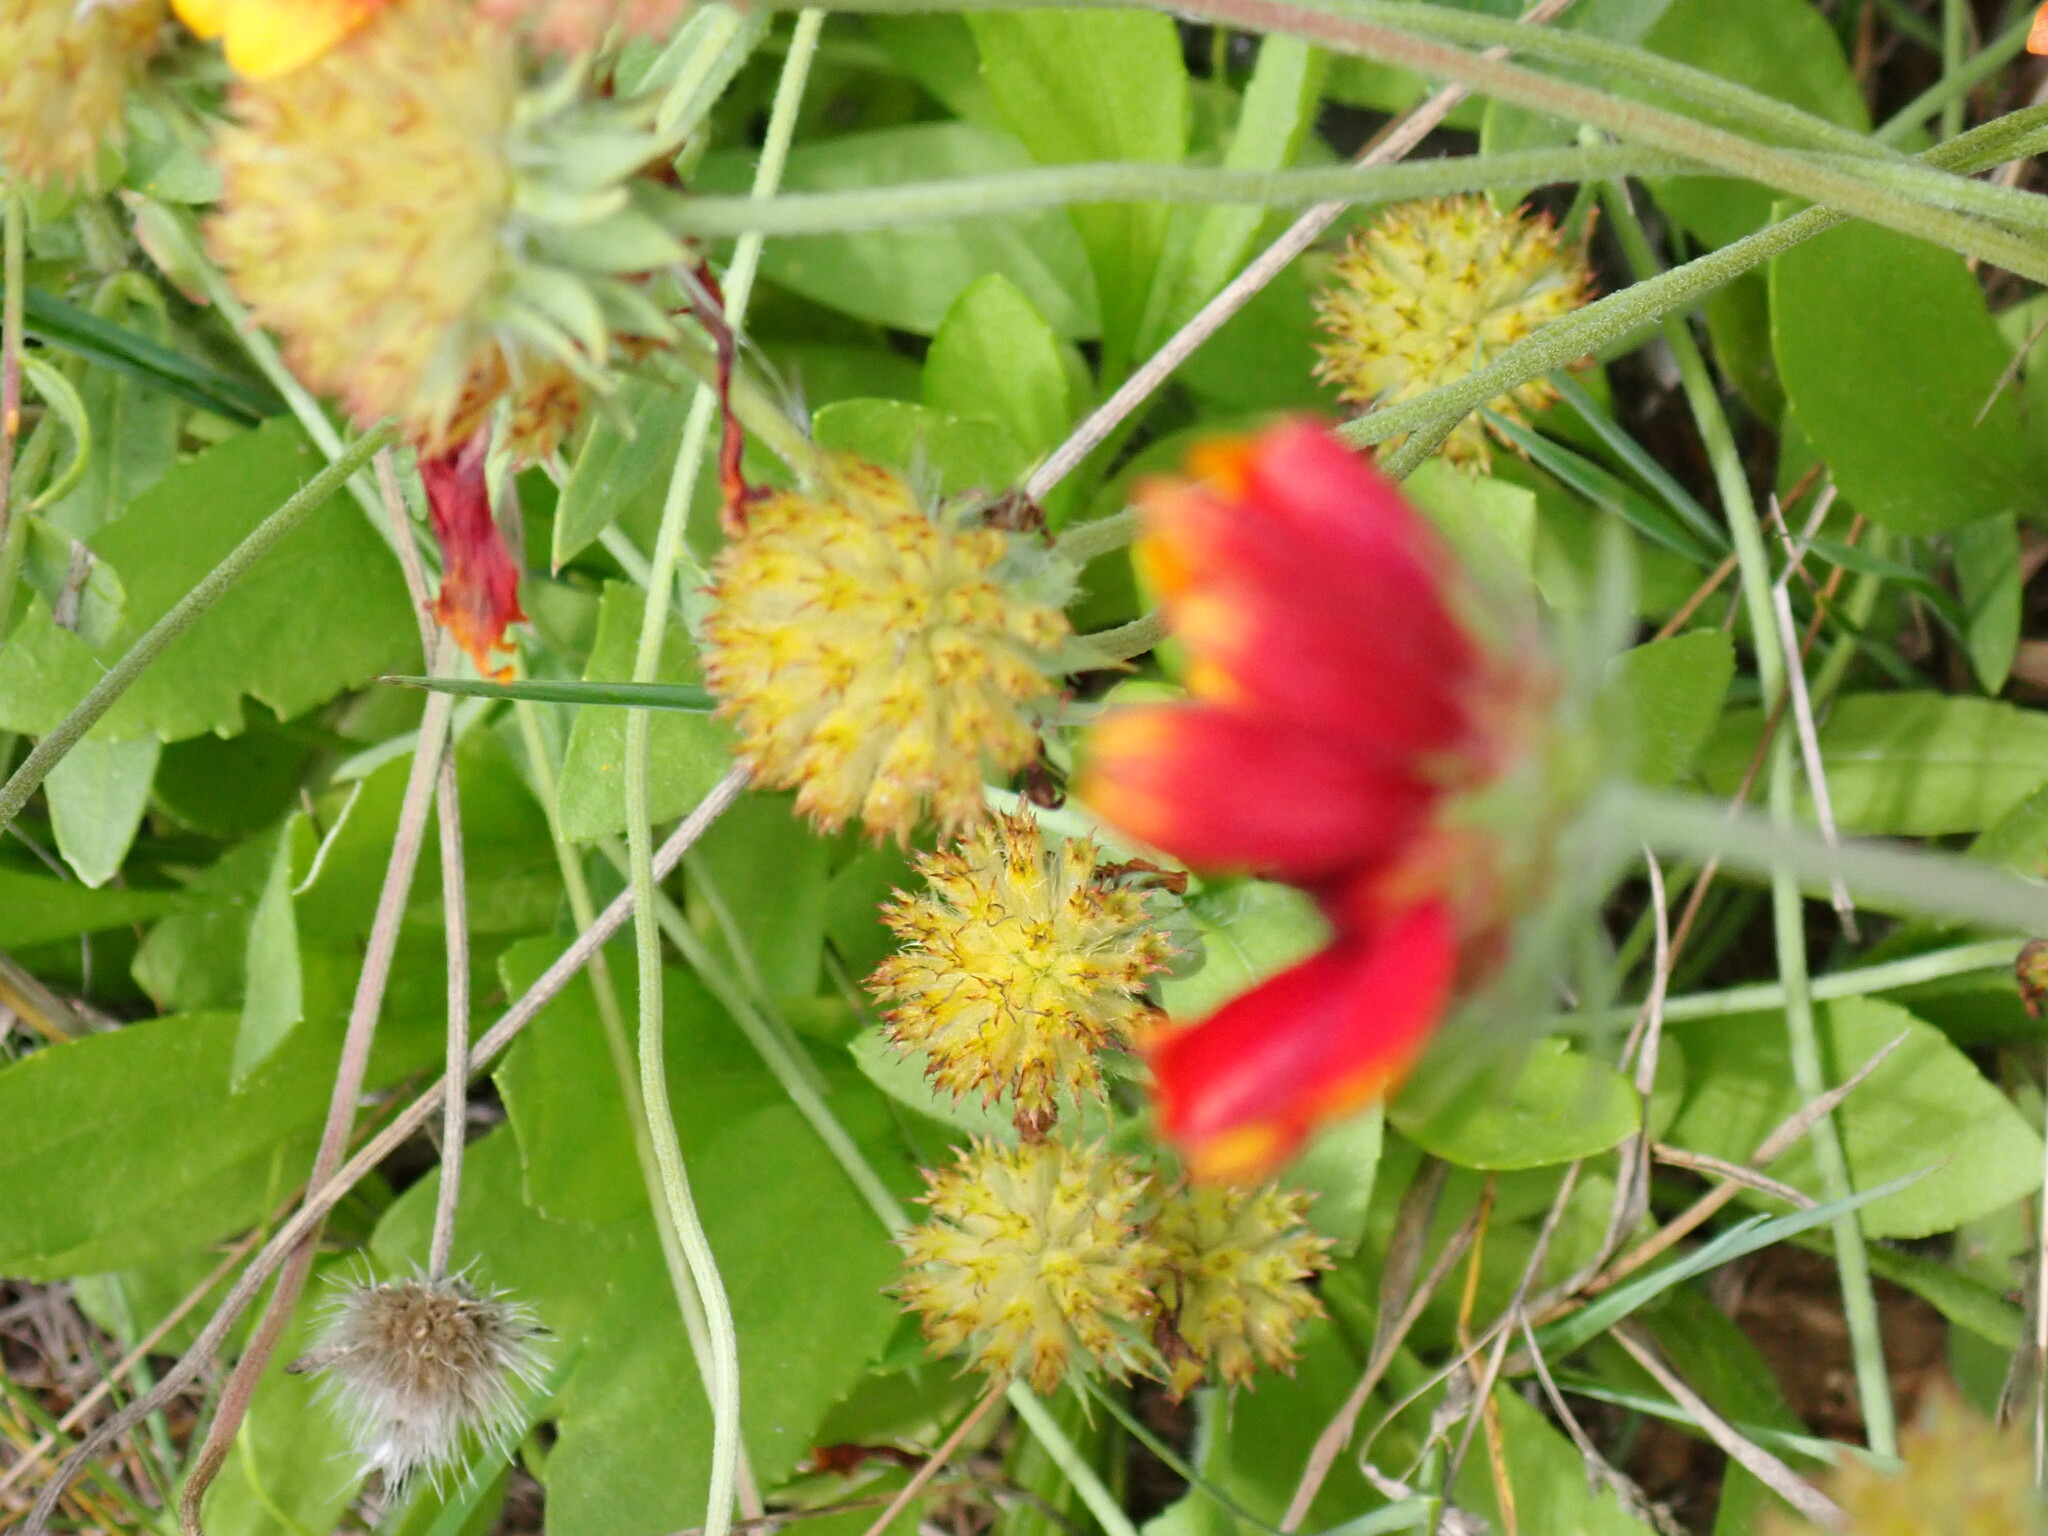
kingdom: Plantae
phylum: Tracheophyta
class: Magnoliopsida
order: Asterales
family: Asteraceae
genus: Gaillardia
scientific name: Gaillardia pulchella
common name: Firewheel
